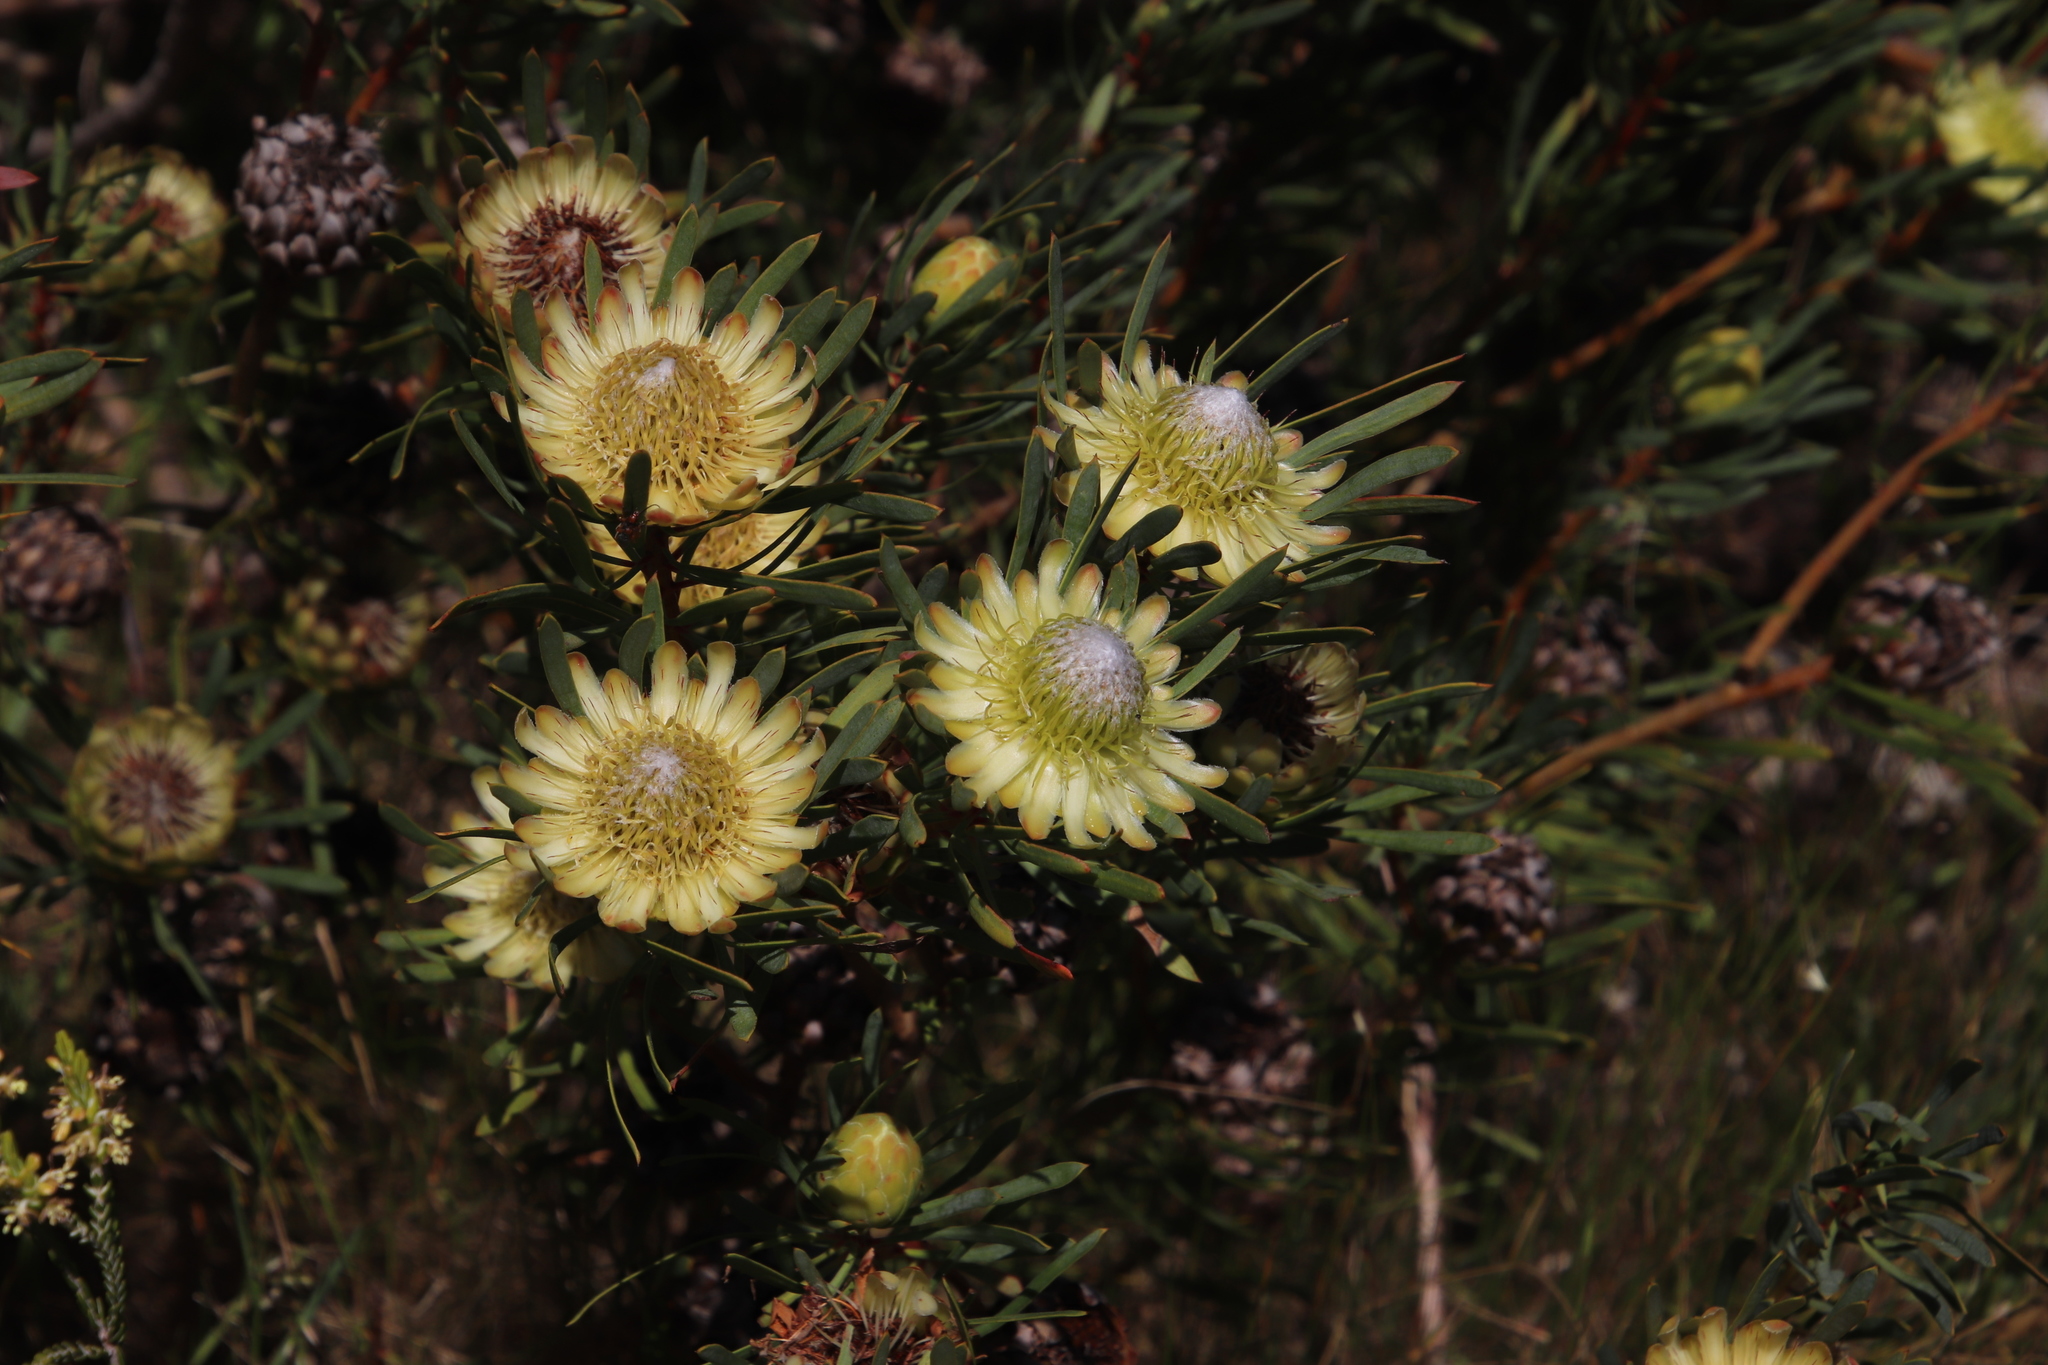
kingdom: Plantae
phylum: Tracheophyta
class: Magnoliopsida
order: Proteales
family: Proteaceae
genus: Protea
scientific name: Protea scolymocephala
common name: Thistle sugarbush
